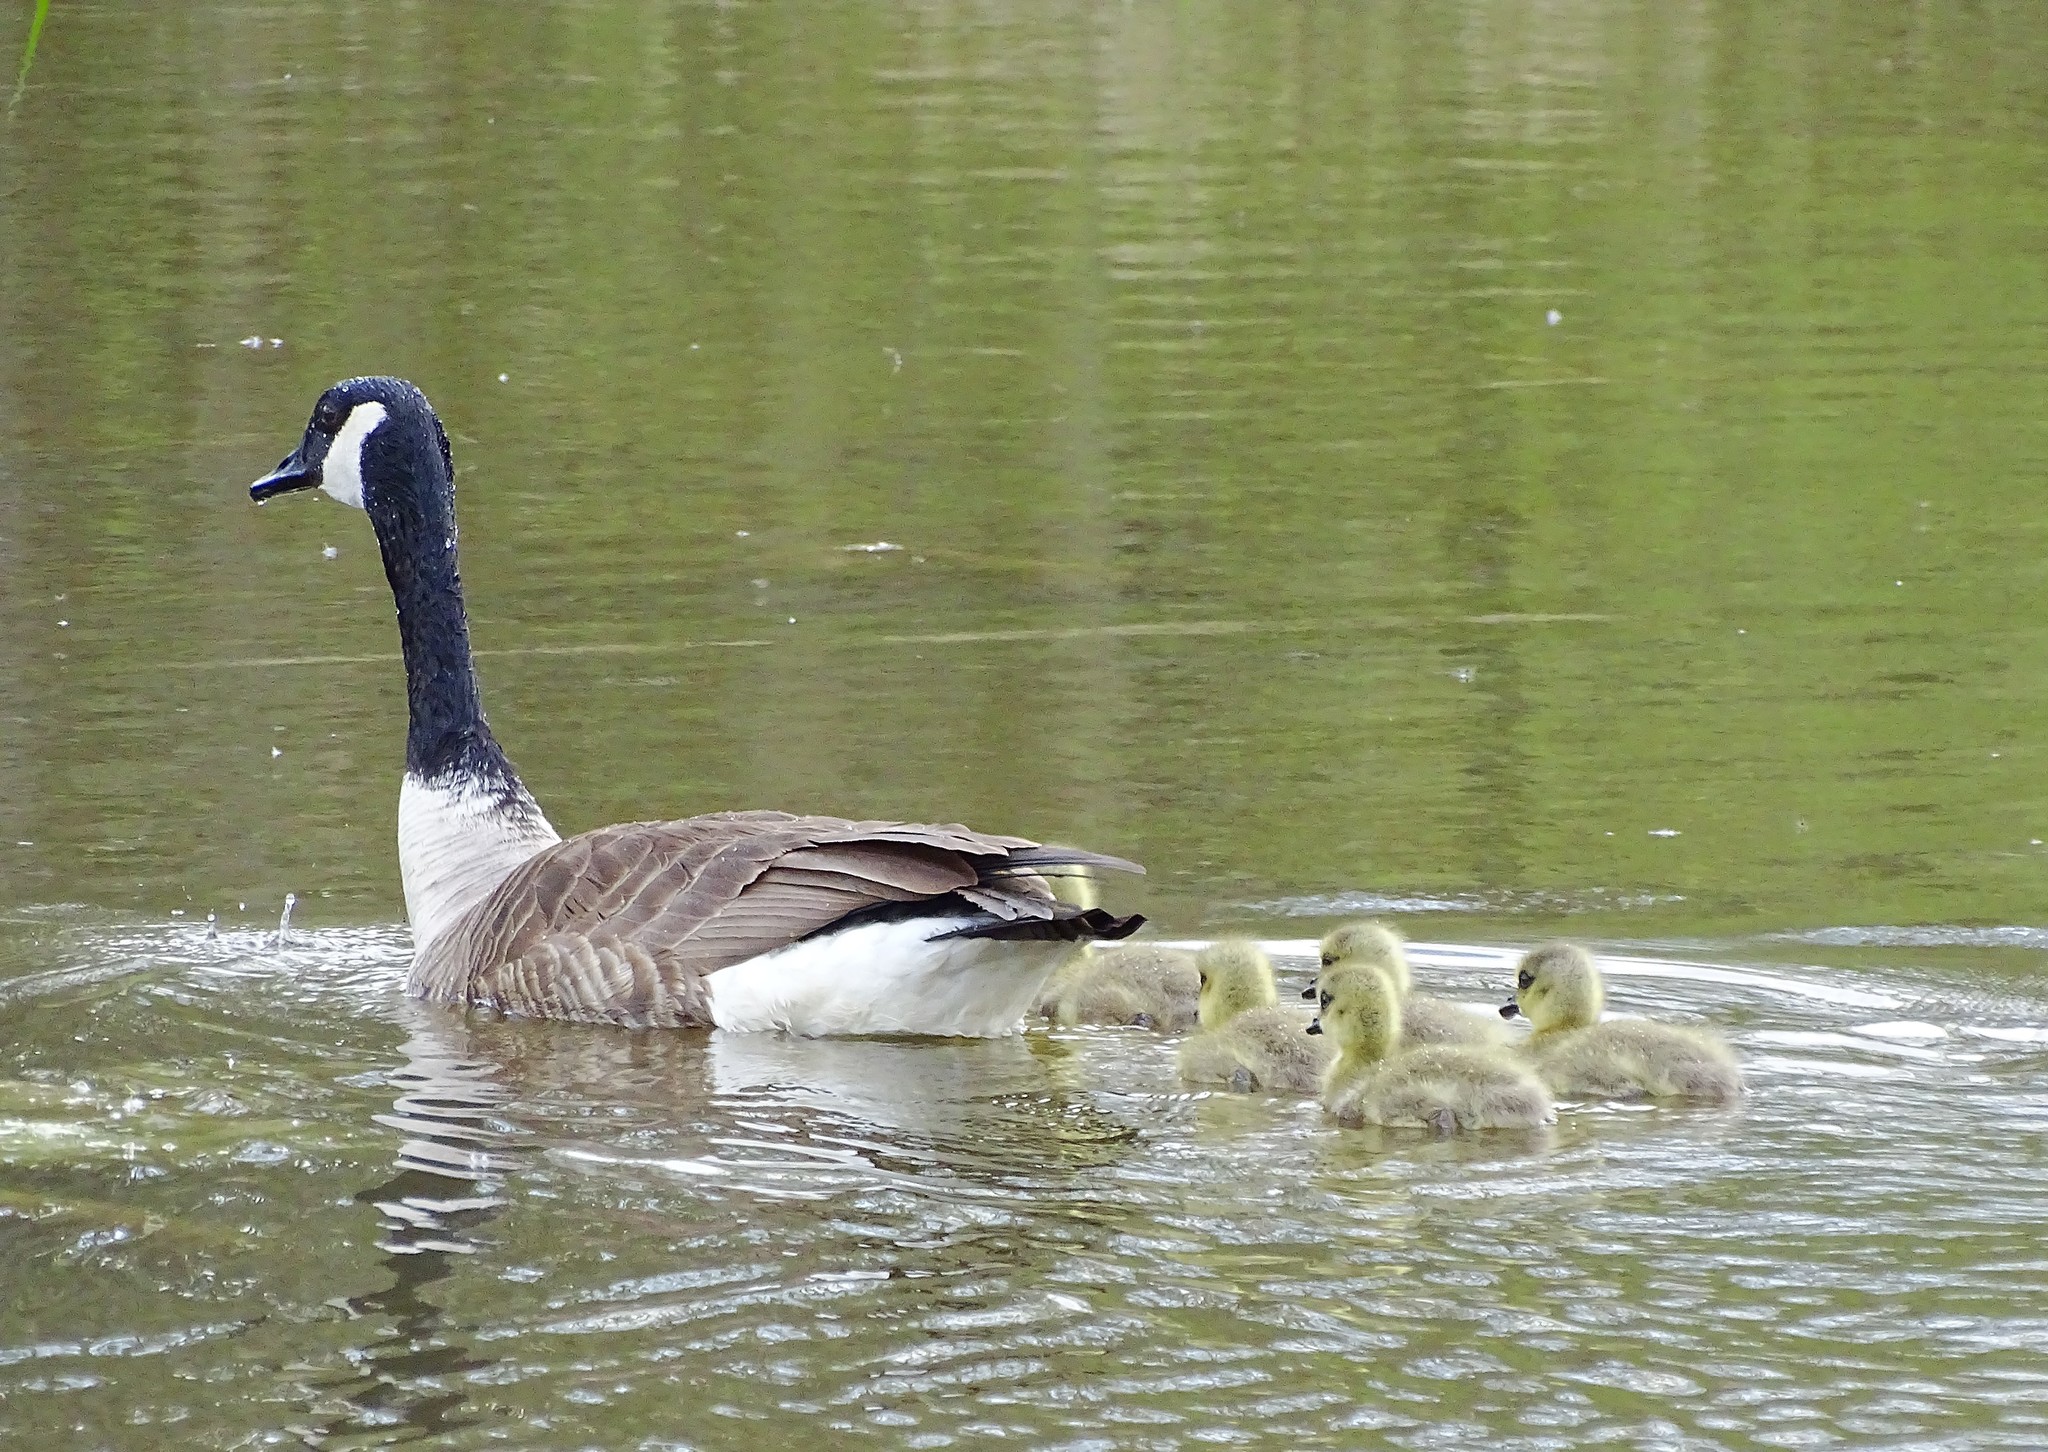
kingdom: Animalia
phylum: Chordata
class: Aves
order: Anseriformes
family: Anatidae
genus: Branta
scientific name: Branta canadensis
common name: Canada goose
